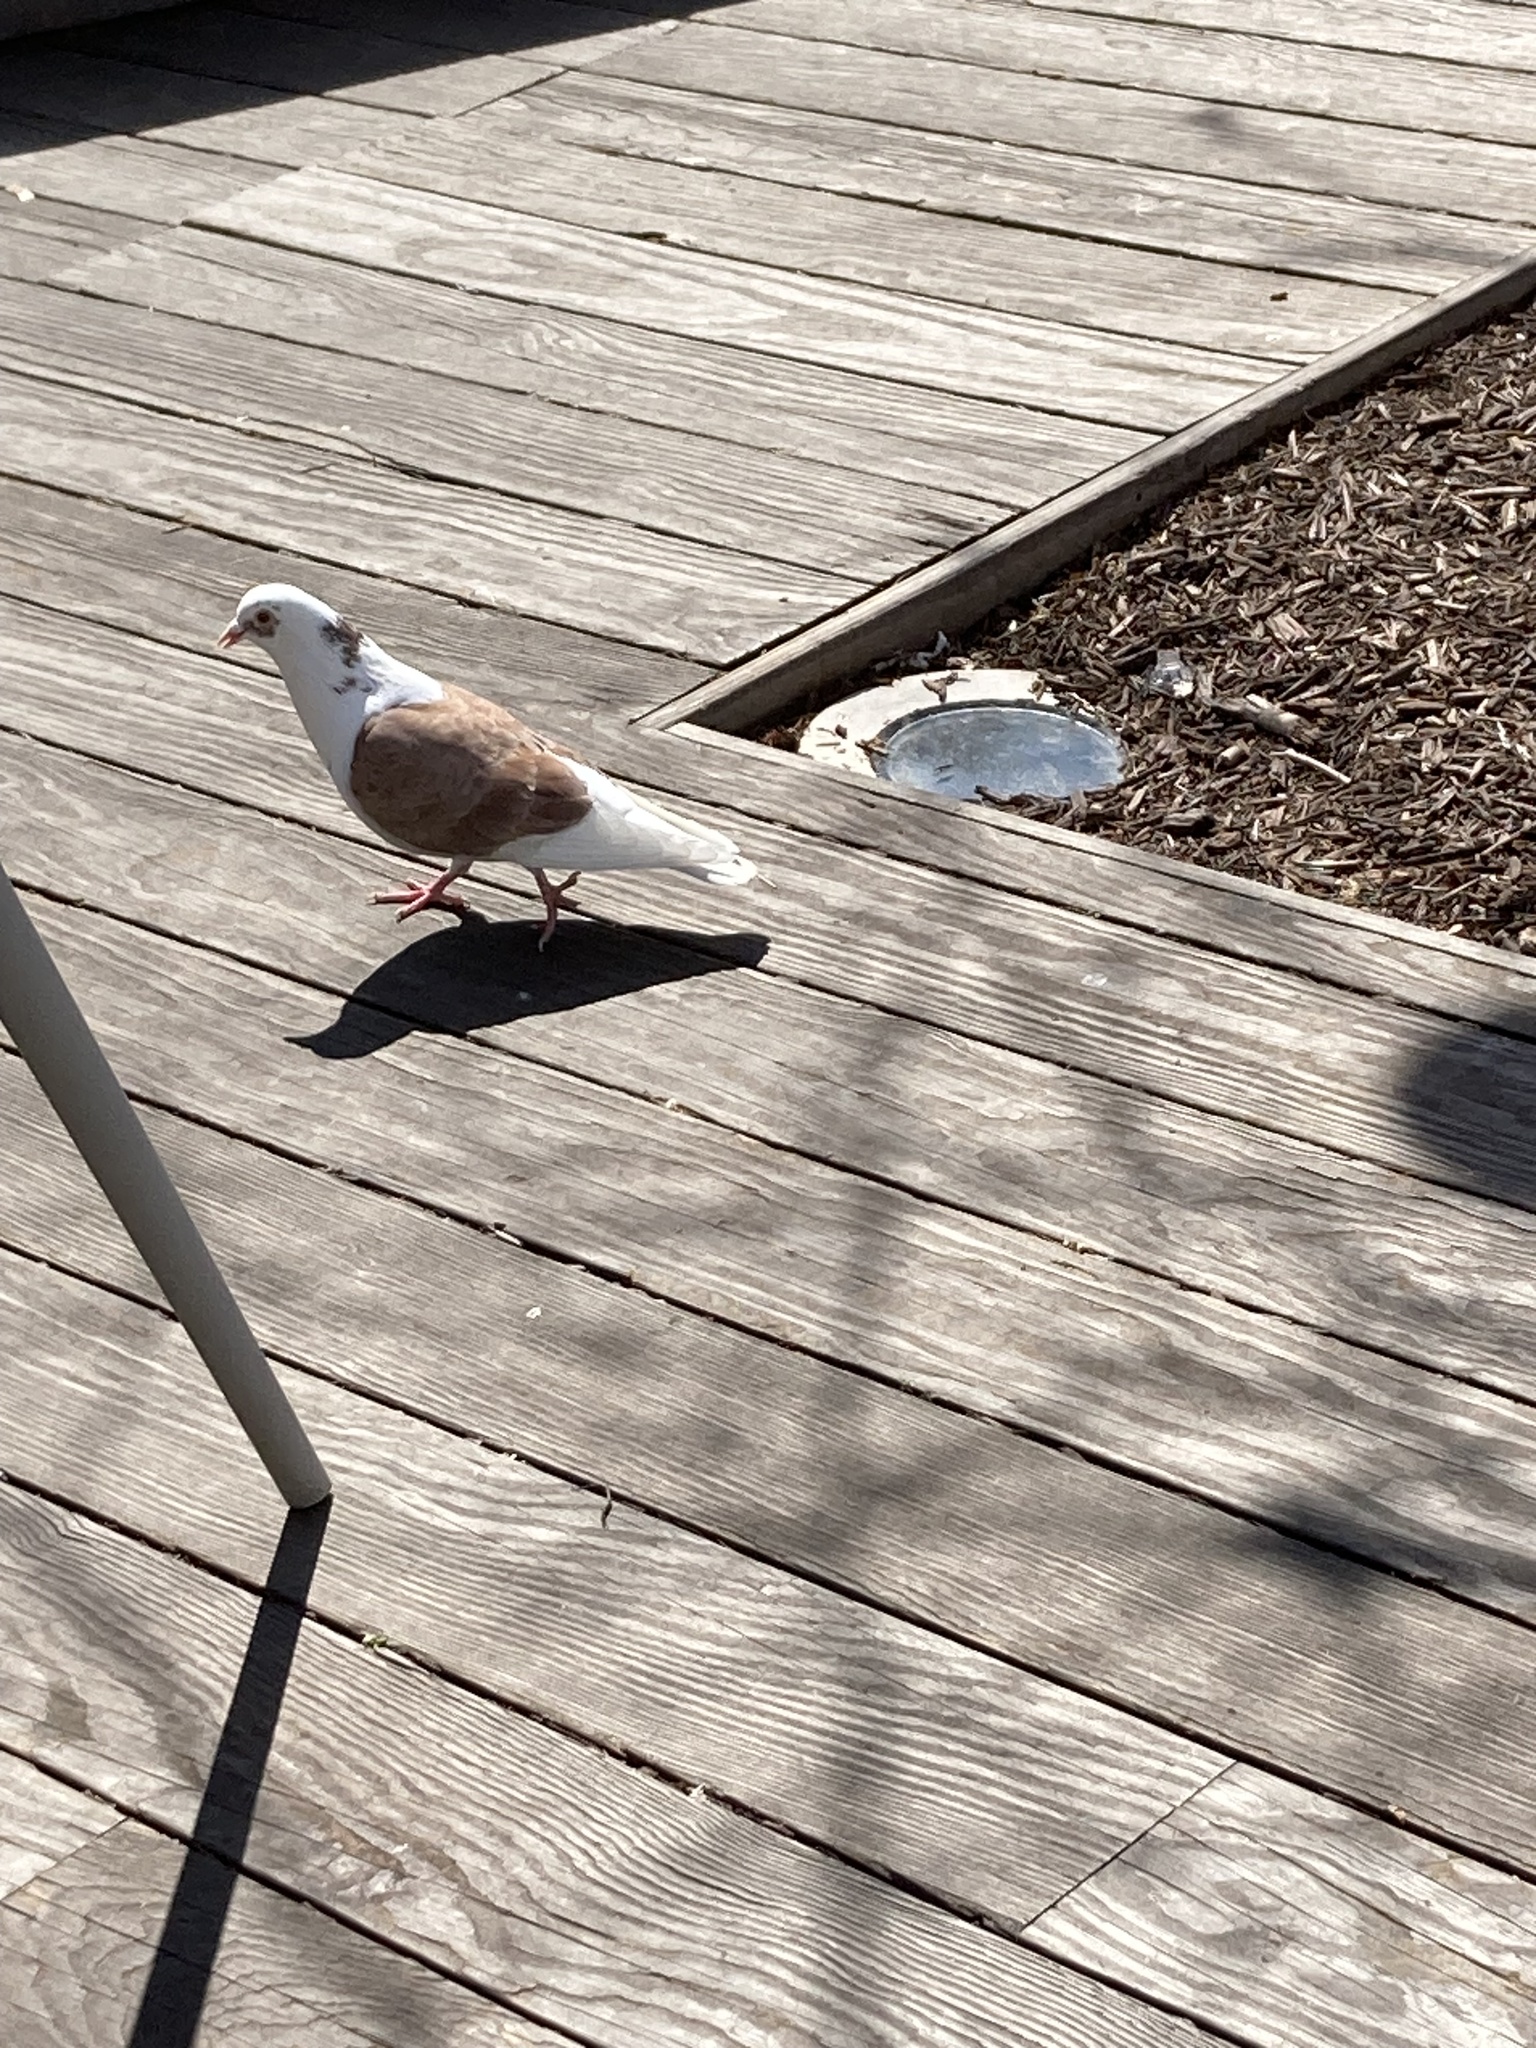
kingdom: Animalia
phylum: Chordata
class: Aves
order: Columbiformes
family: Columbidae
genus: Columba
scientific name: Columba livia
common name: Rock pigeon
